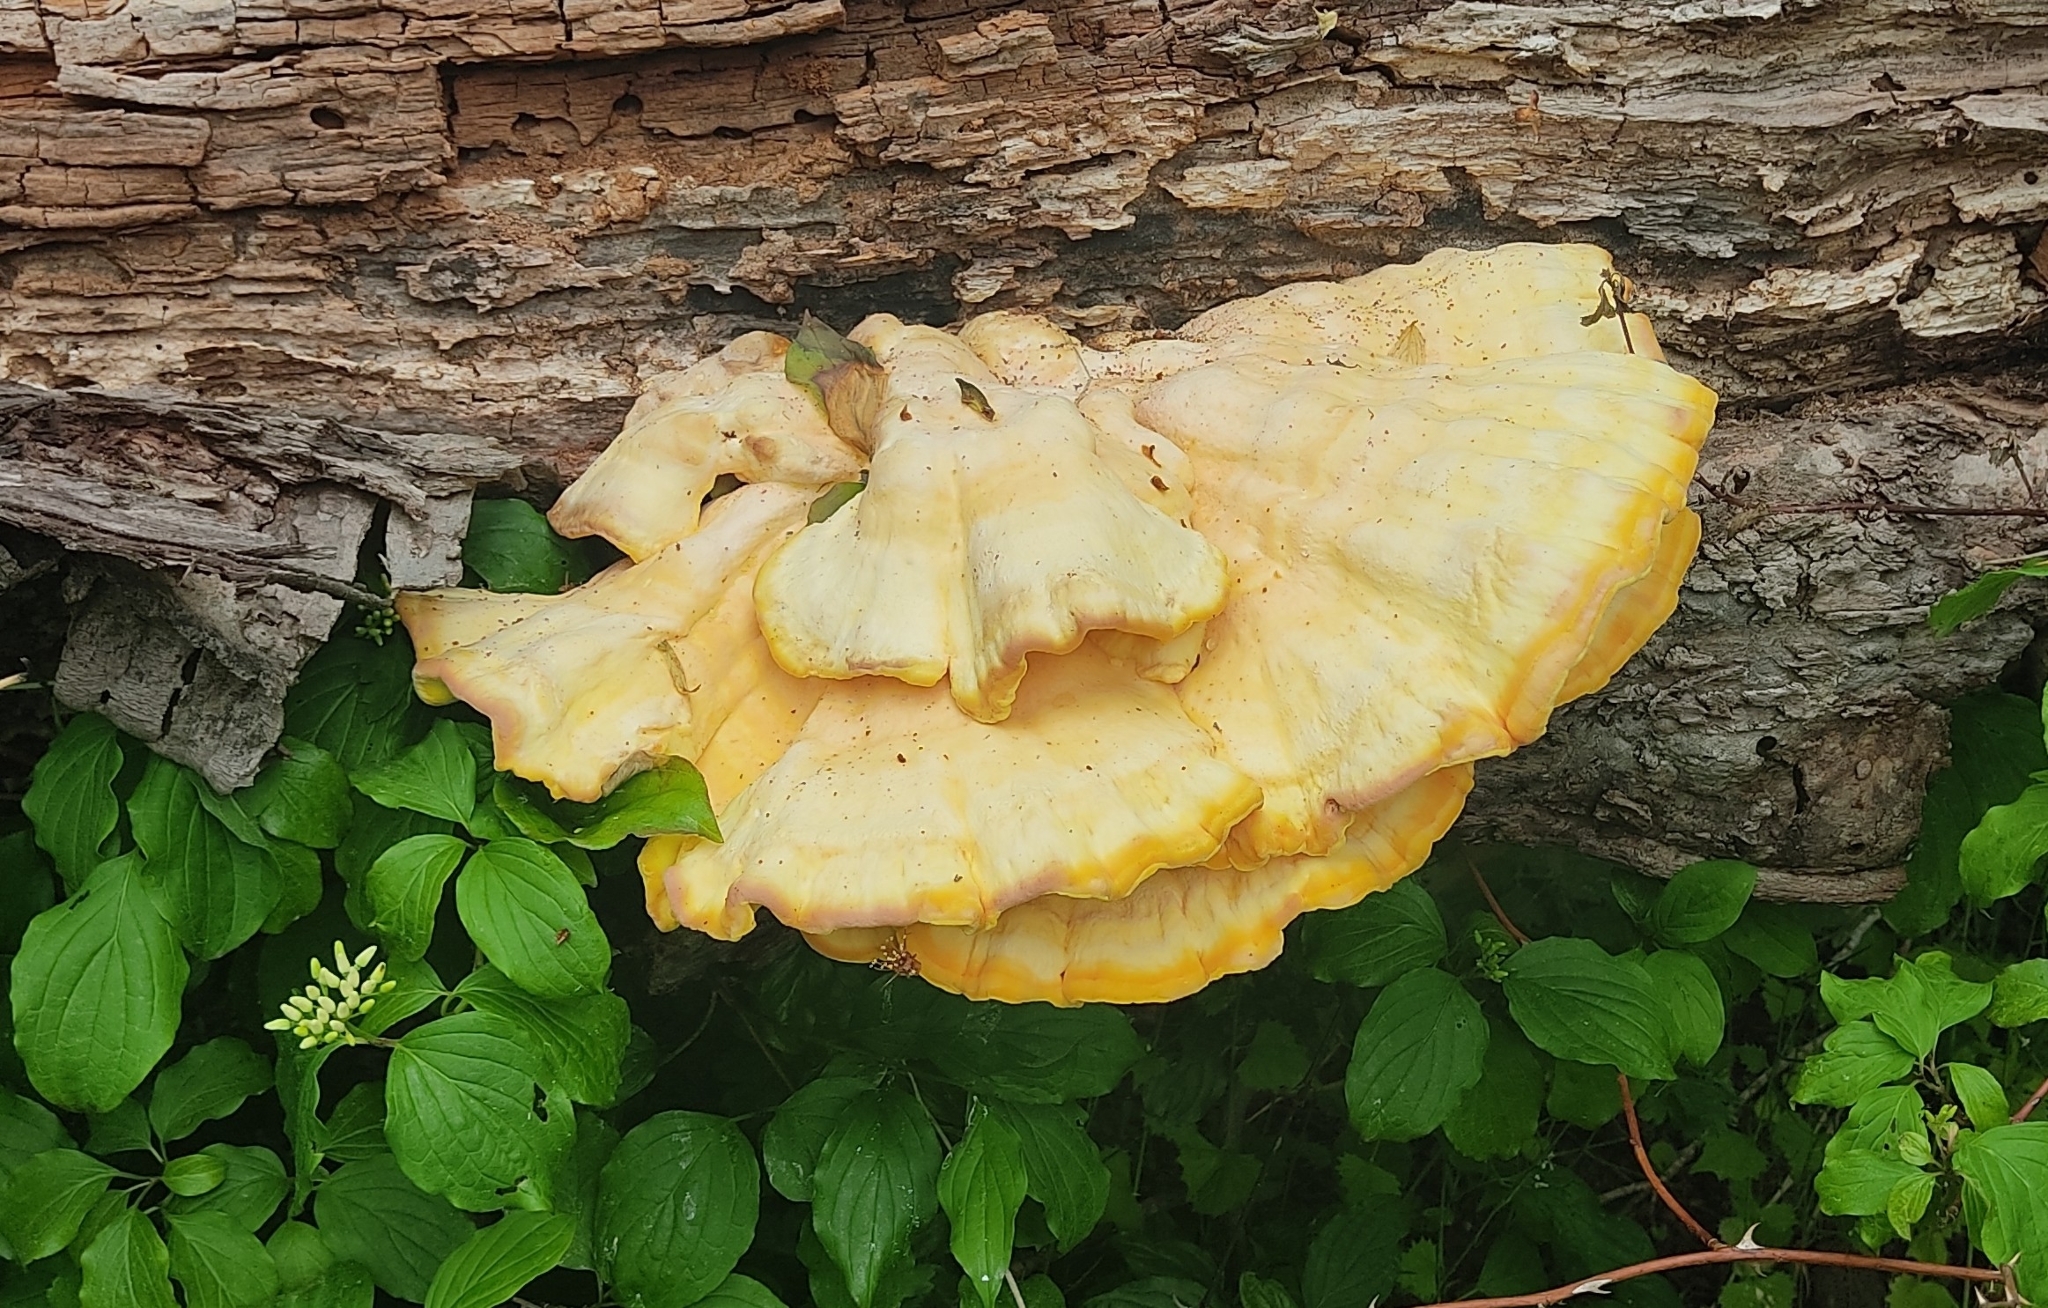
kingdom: Fungi
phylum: Basidiomycota
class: Agaricomycetes
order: Polyporales
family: Laetiporaceae
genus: Laetiporus
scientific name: Laetiporus sulphureus
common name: Chicken of the woods
